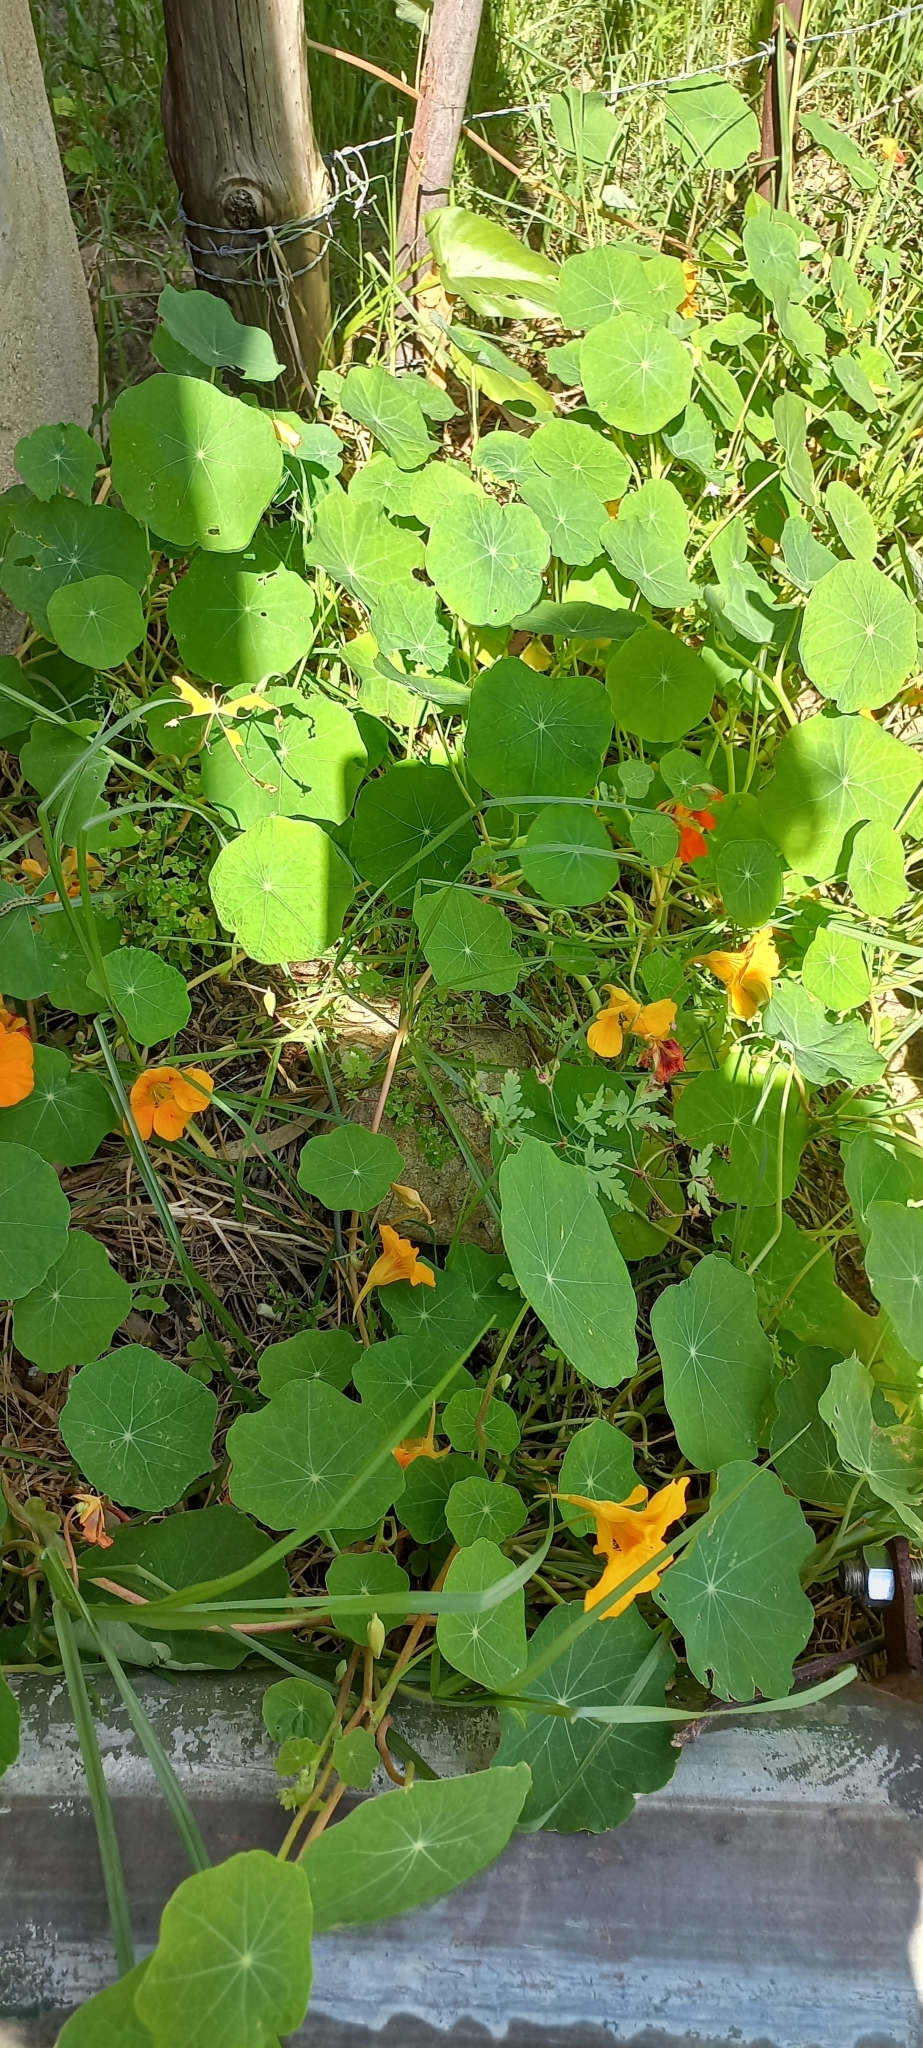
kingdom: Plantae
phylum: Tracheophyta
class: Magnoliopsida
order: Brassicales
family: Tropaeolaceae
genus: Tropaeolum
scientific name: Tropaeolum majus
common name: Nasturtium
